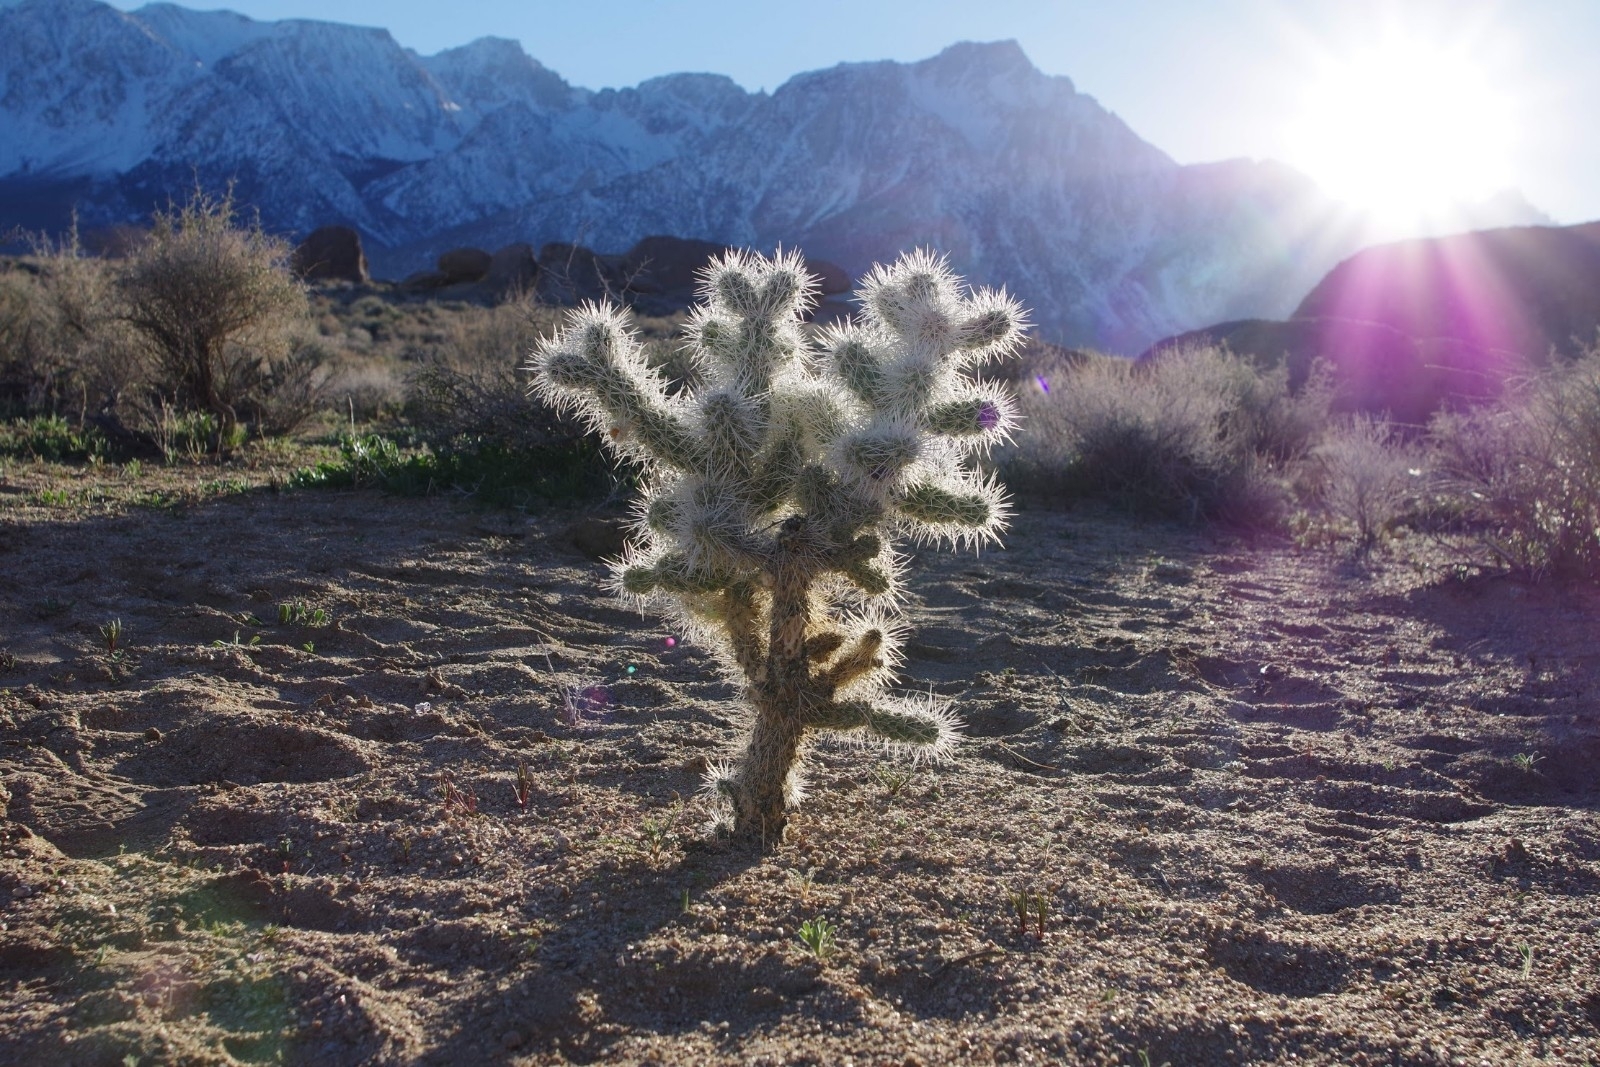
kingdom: Plantae
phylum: Tracheophyta
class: Magnoliopsida
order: Caryophyllales
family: Cactaceae
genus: Cylindropuntia
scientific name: Cylindropuntia echinocarpa
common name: Ground cholla
